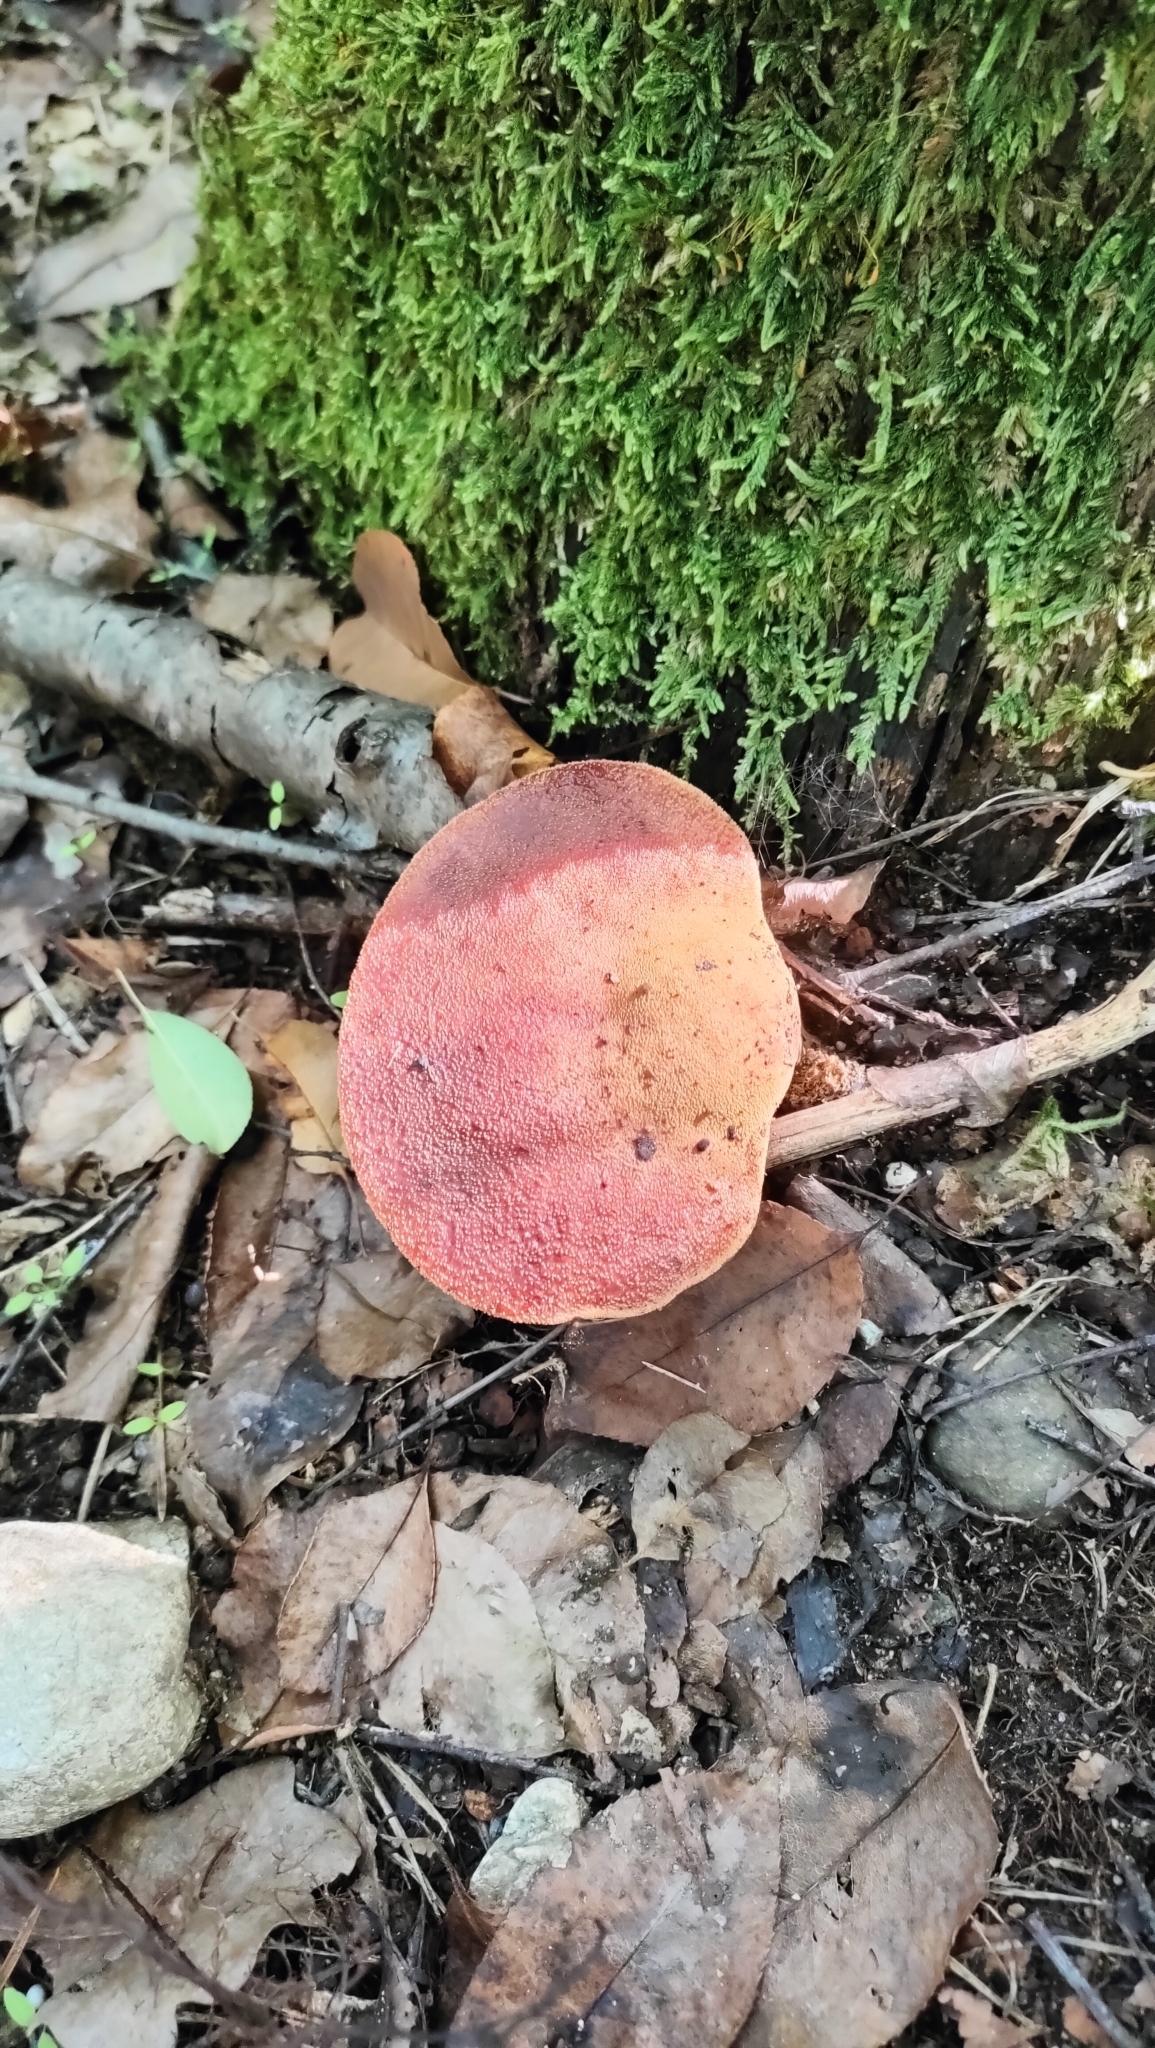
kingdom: Fungi
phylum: Basidiomycota
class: Agaricomycetes
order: Agaricales
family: Fistulinaceae
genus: Fistulina
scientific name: Fistulina hepatica
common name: Beef-steak fungus
